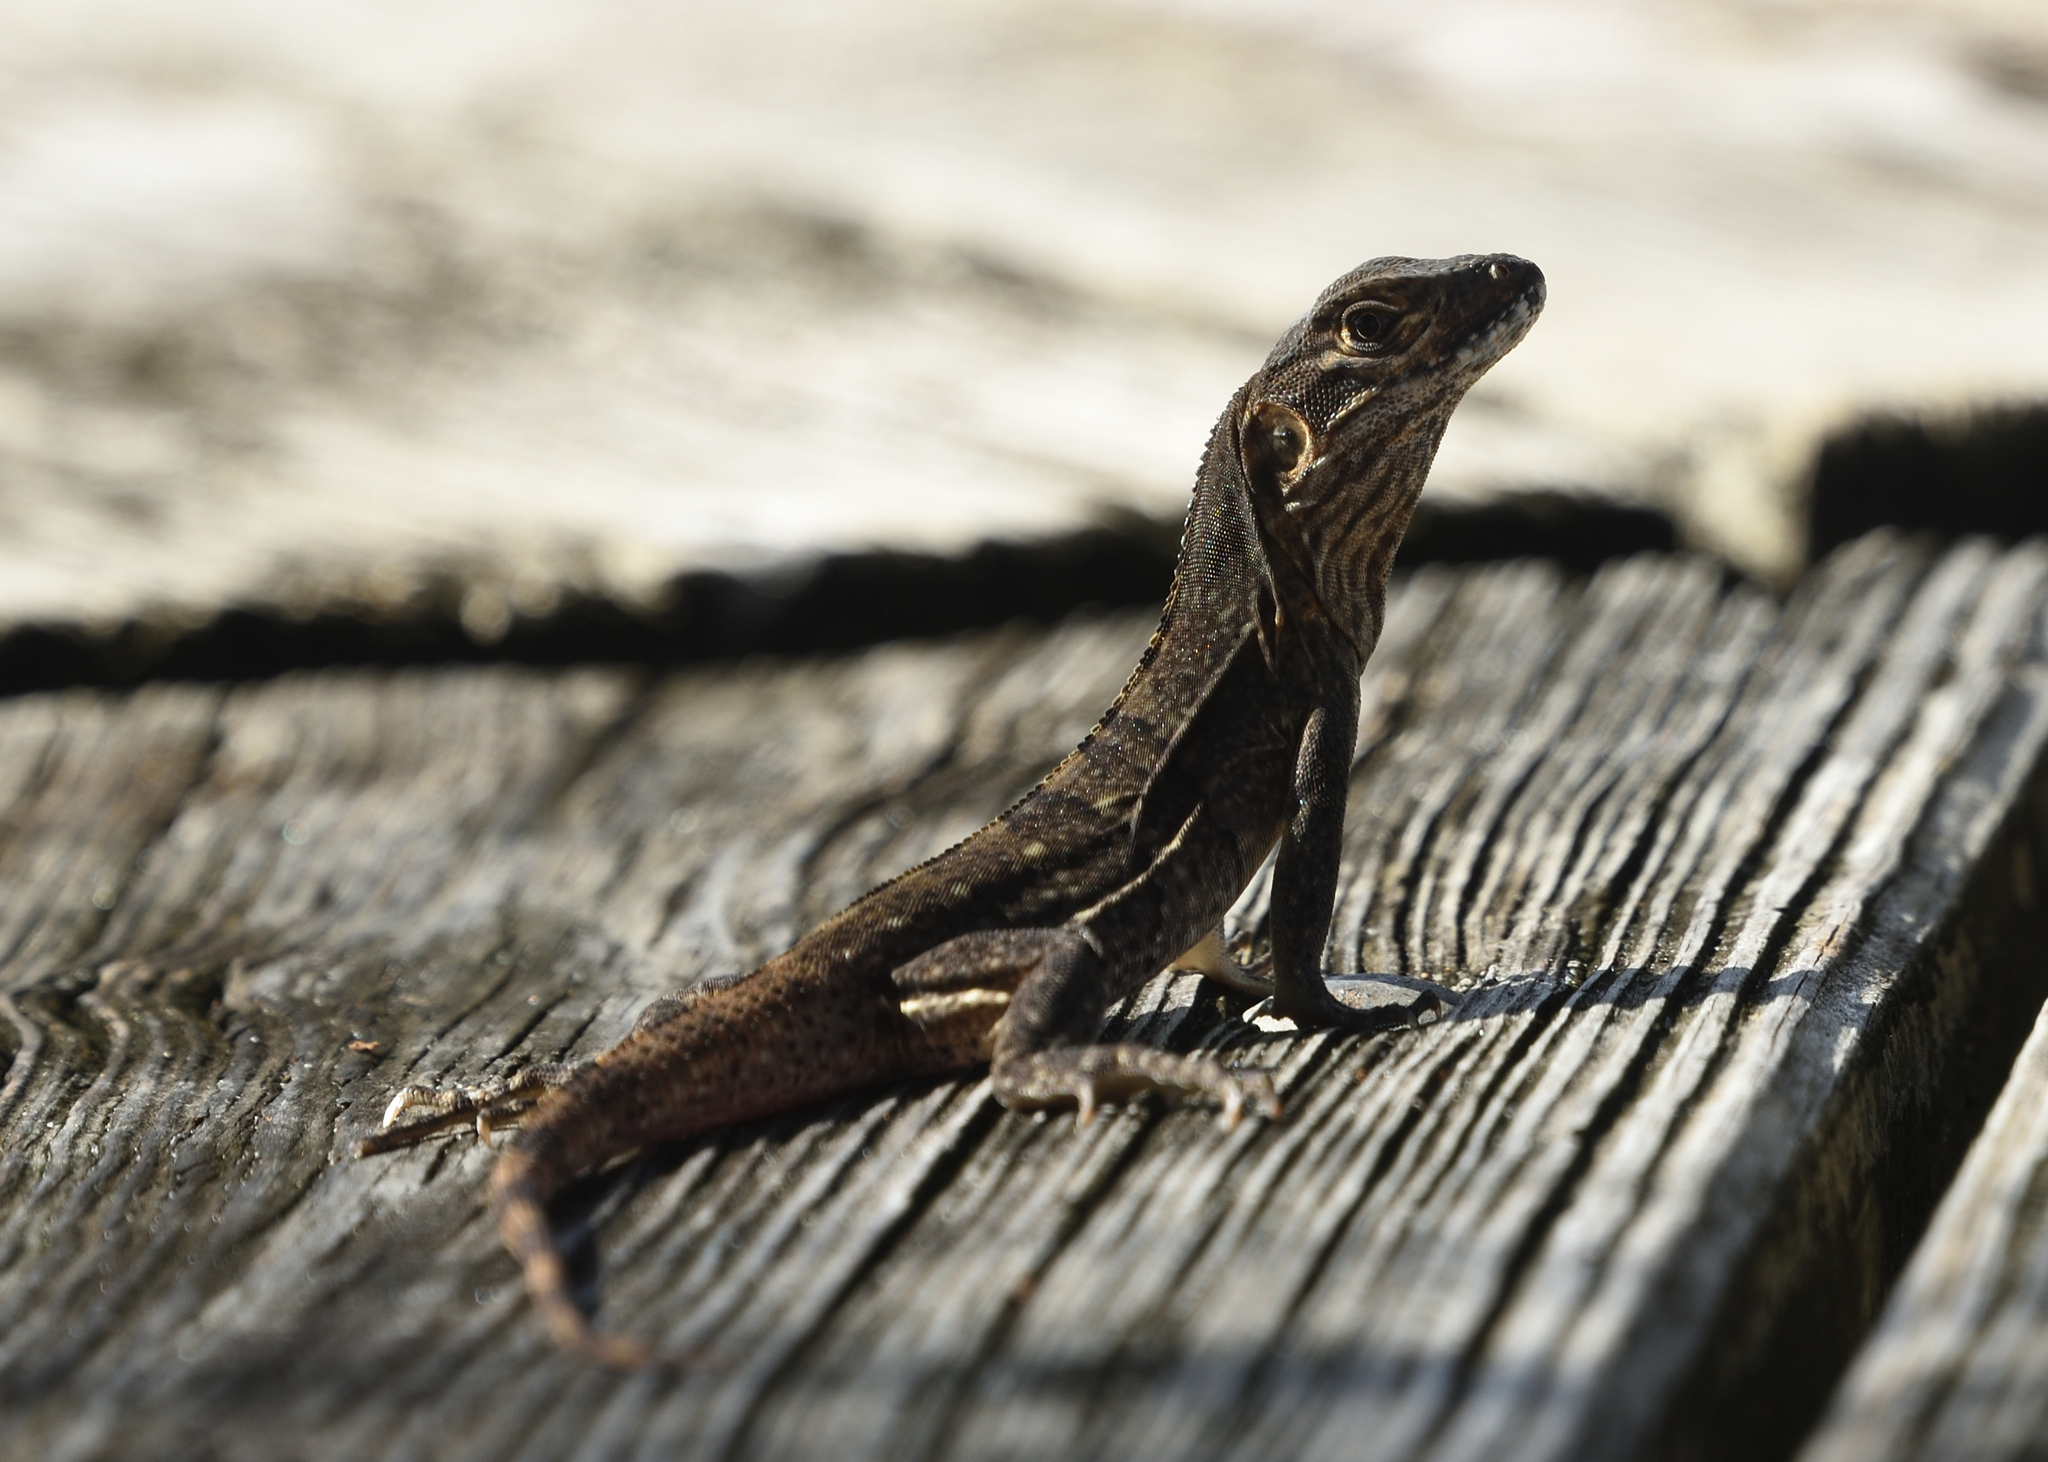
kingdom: Animalia
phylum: Chordata
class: Squamata
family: Iguanidae
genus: Ctenosaura
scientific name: Ctenosaura similis
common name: Black spiny-tailed iguana
